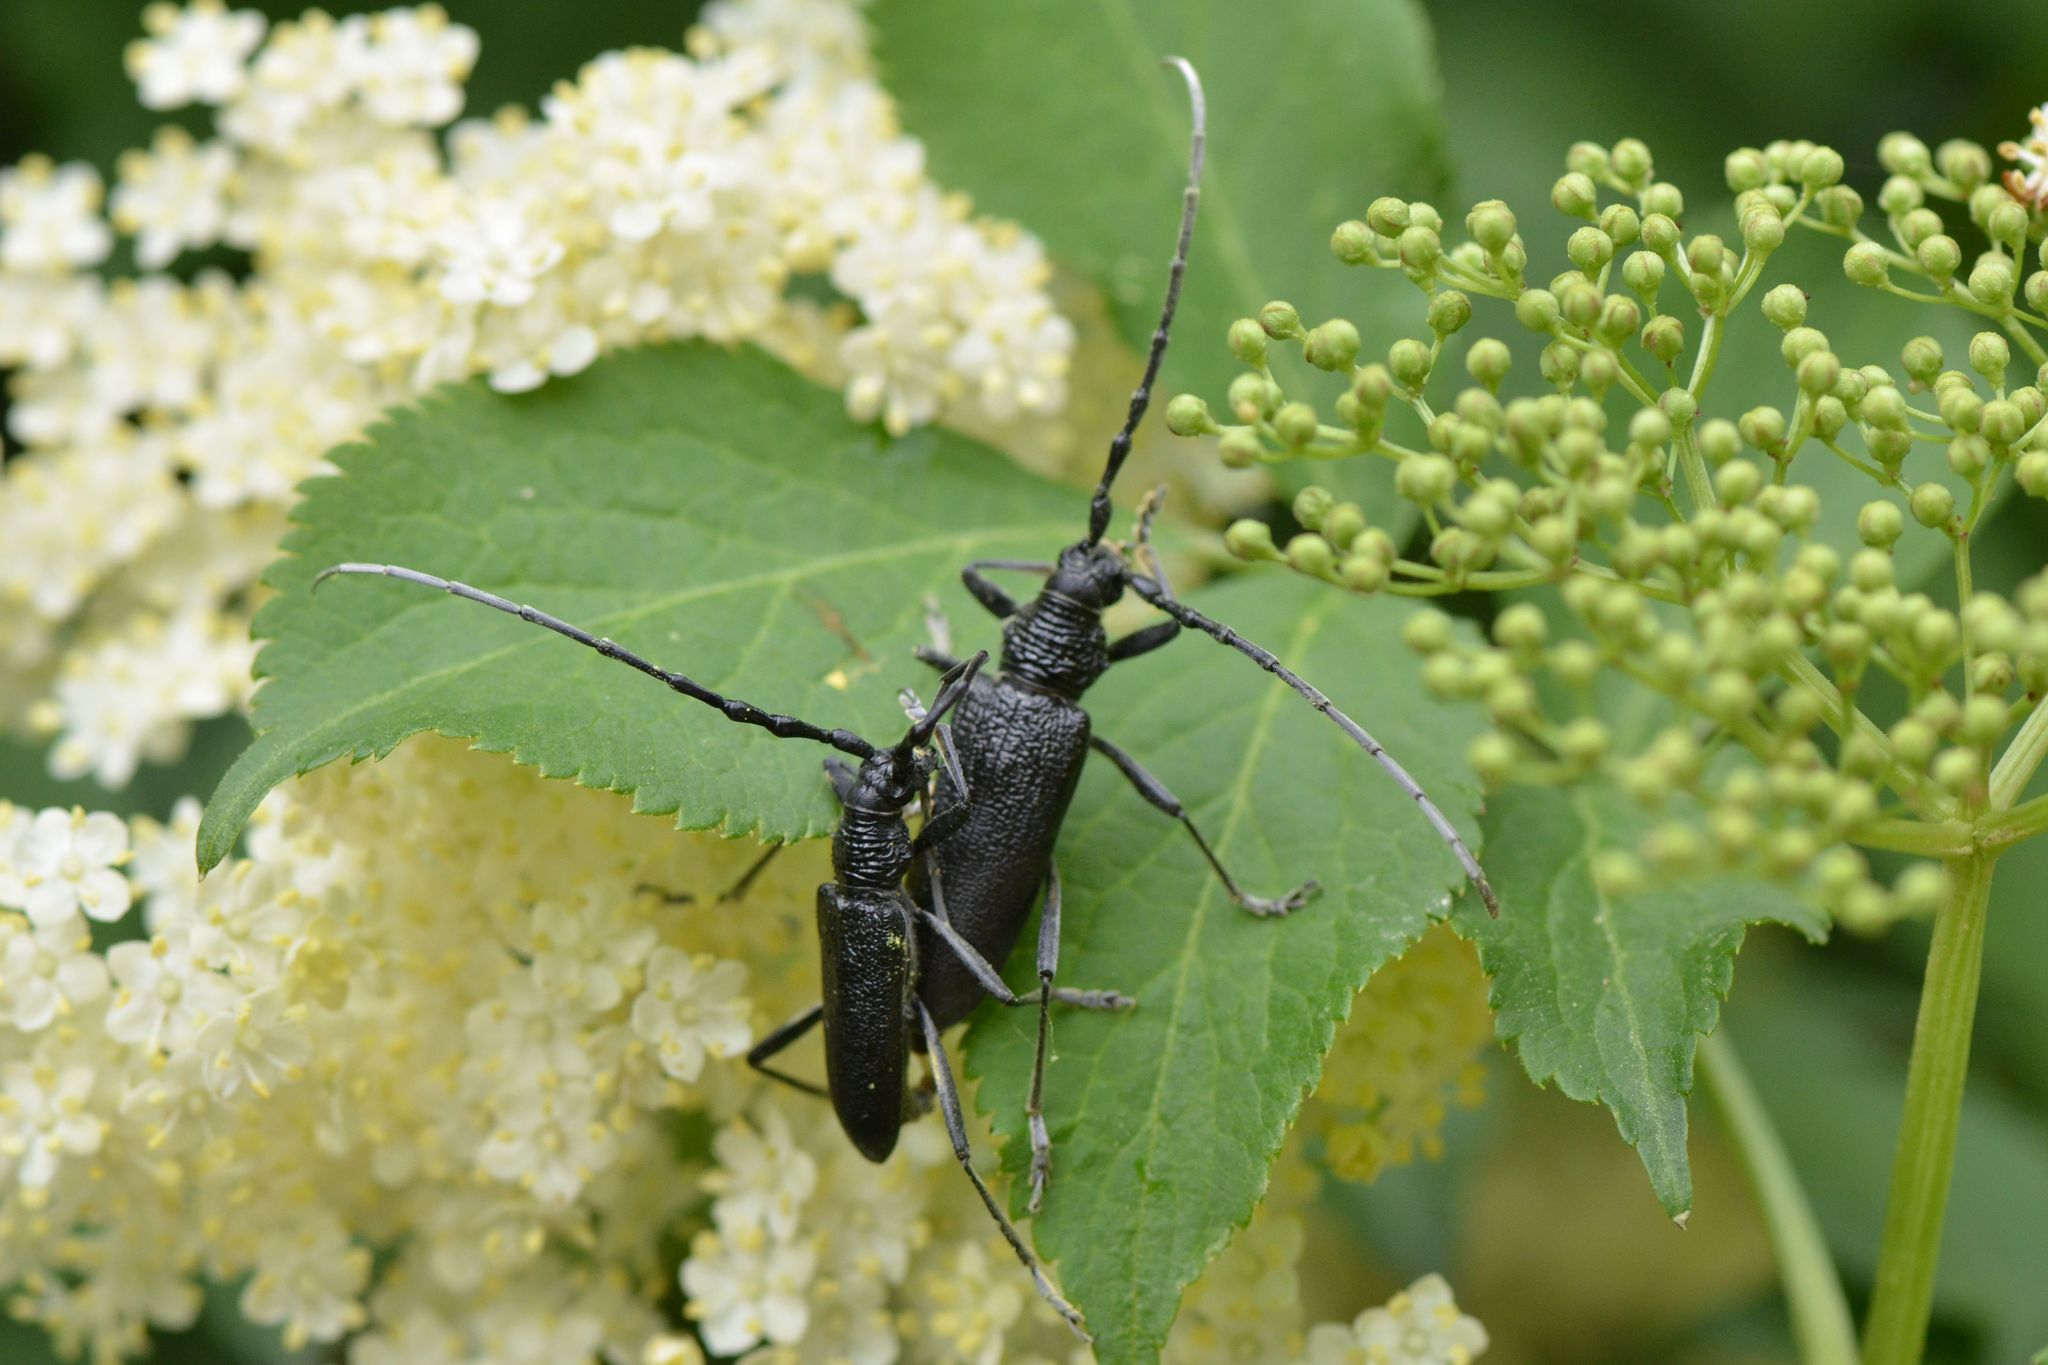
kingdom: Animalia
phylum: Arthropoda
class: Insecta
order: Coleoptera
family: Cerambycidae
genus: Cerambyx
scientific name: Cerambyx scopolii
